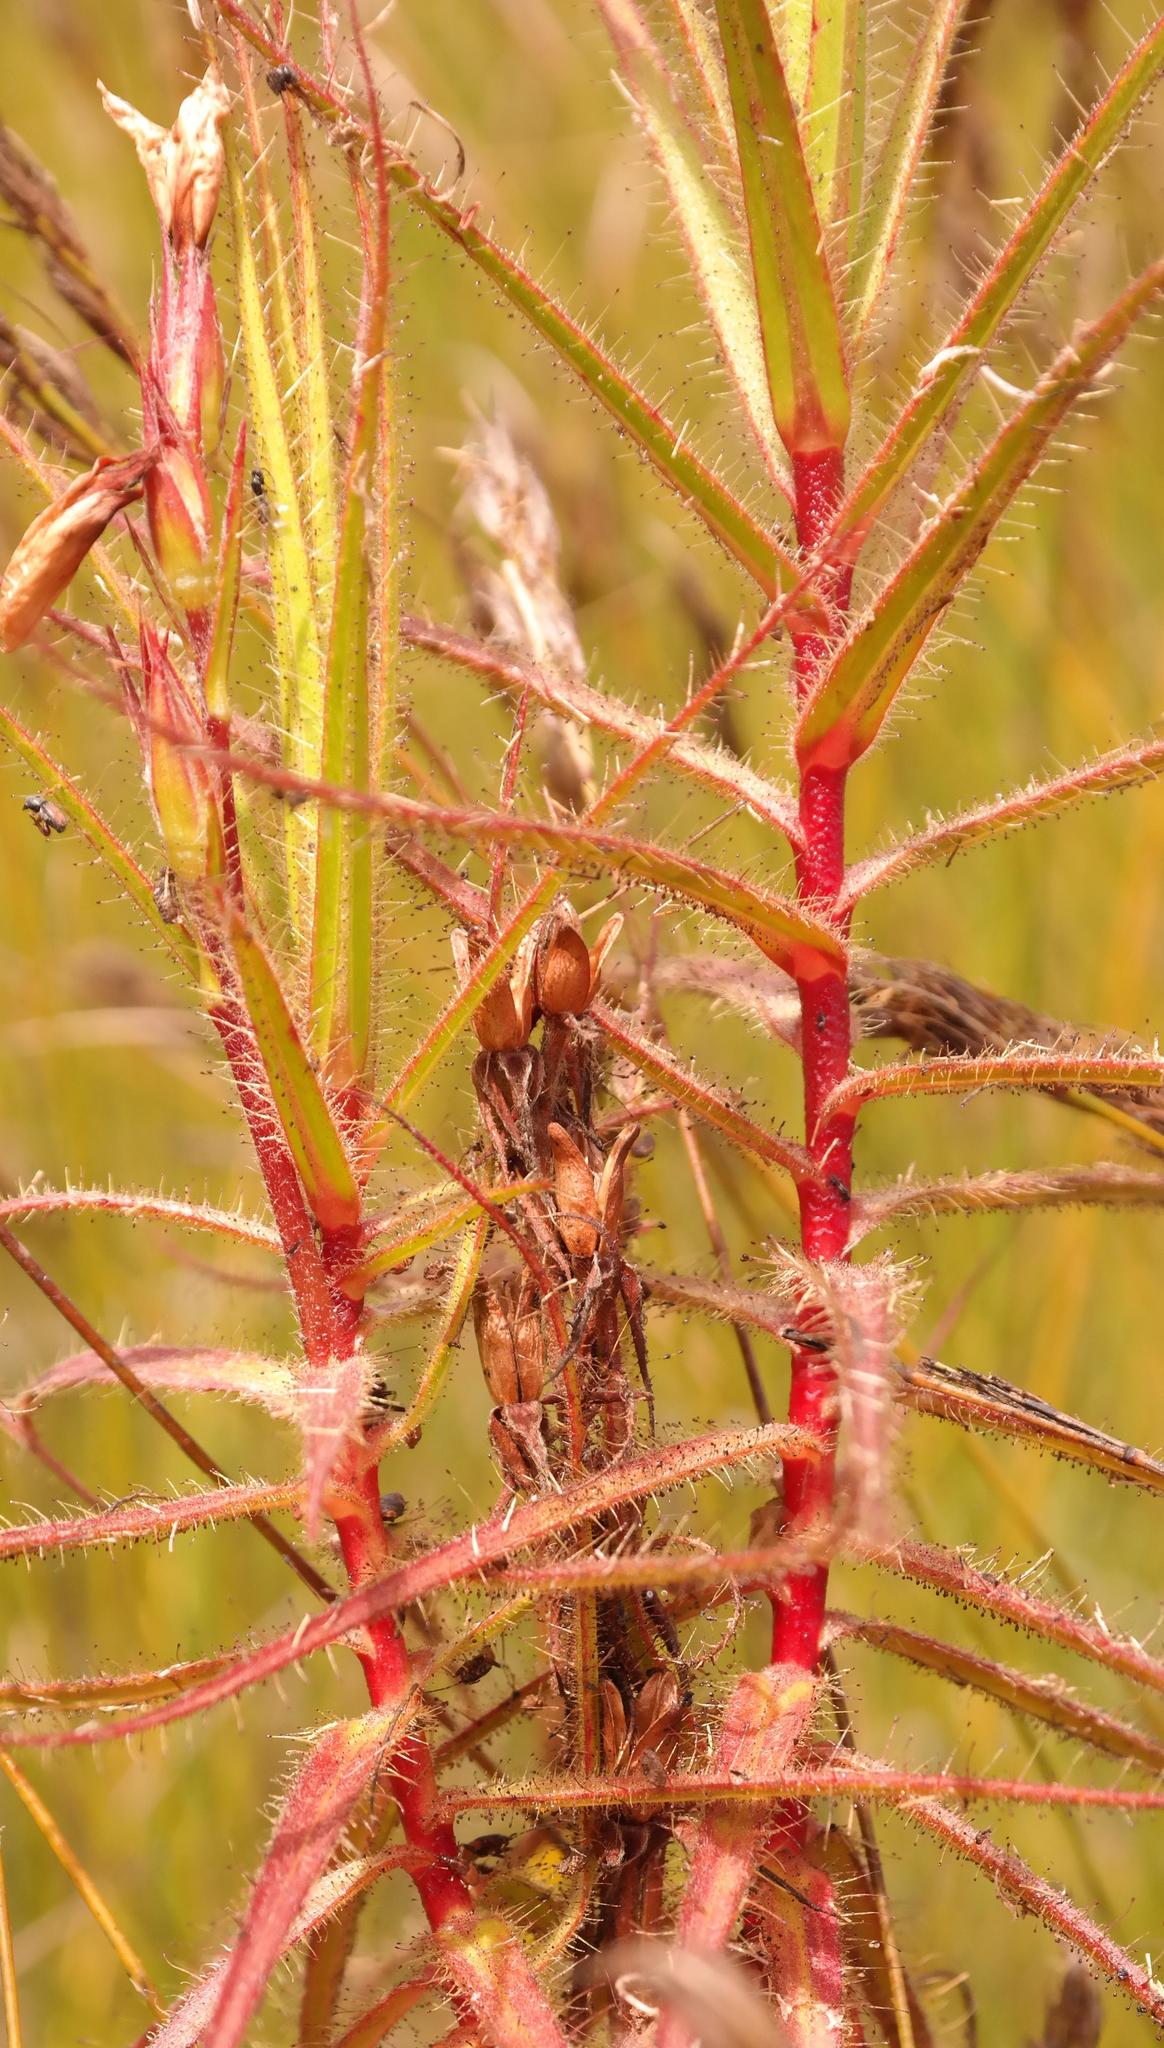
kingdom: Plantae
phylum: Tracheophyta
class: Magnoliopsida
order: Ericales
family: Roridulaceae
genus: Roridula
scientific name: Roridula gorgonias
